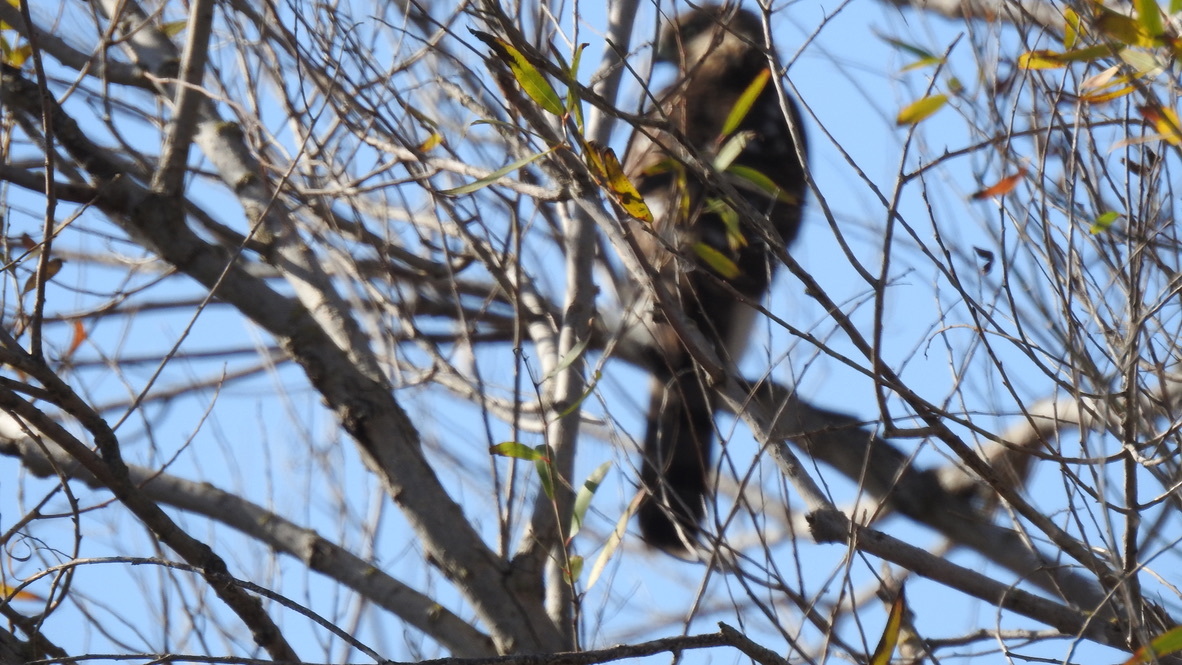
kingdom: Animalia
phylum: Chordata
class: Aves
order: Accipitriformes
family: Accipitridae
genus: Accipiter
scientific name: Accipiter cooperii
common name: Cooper's hawk
